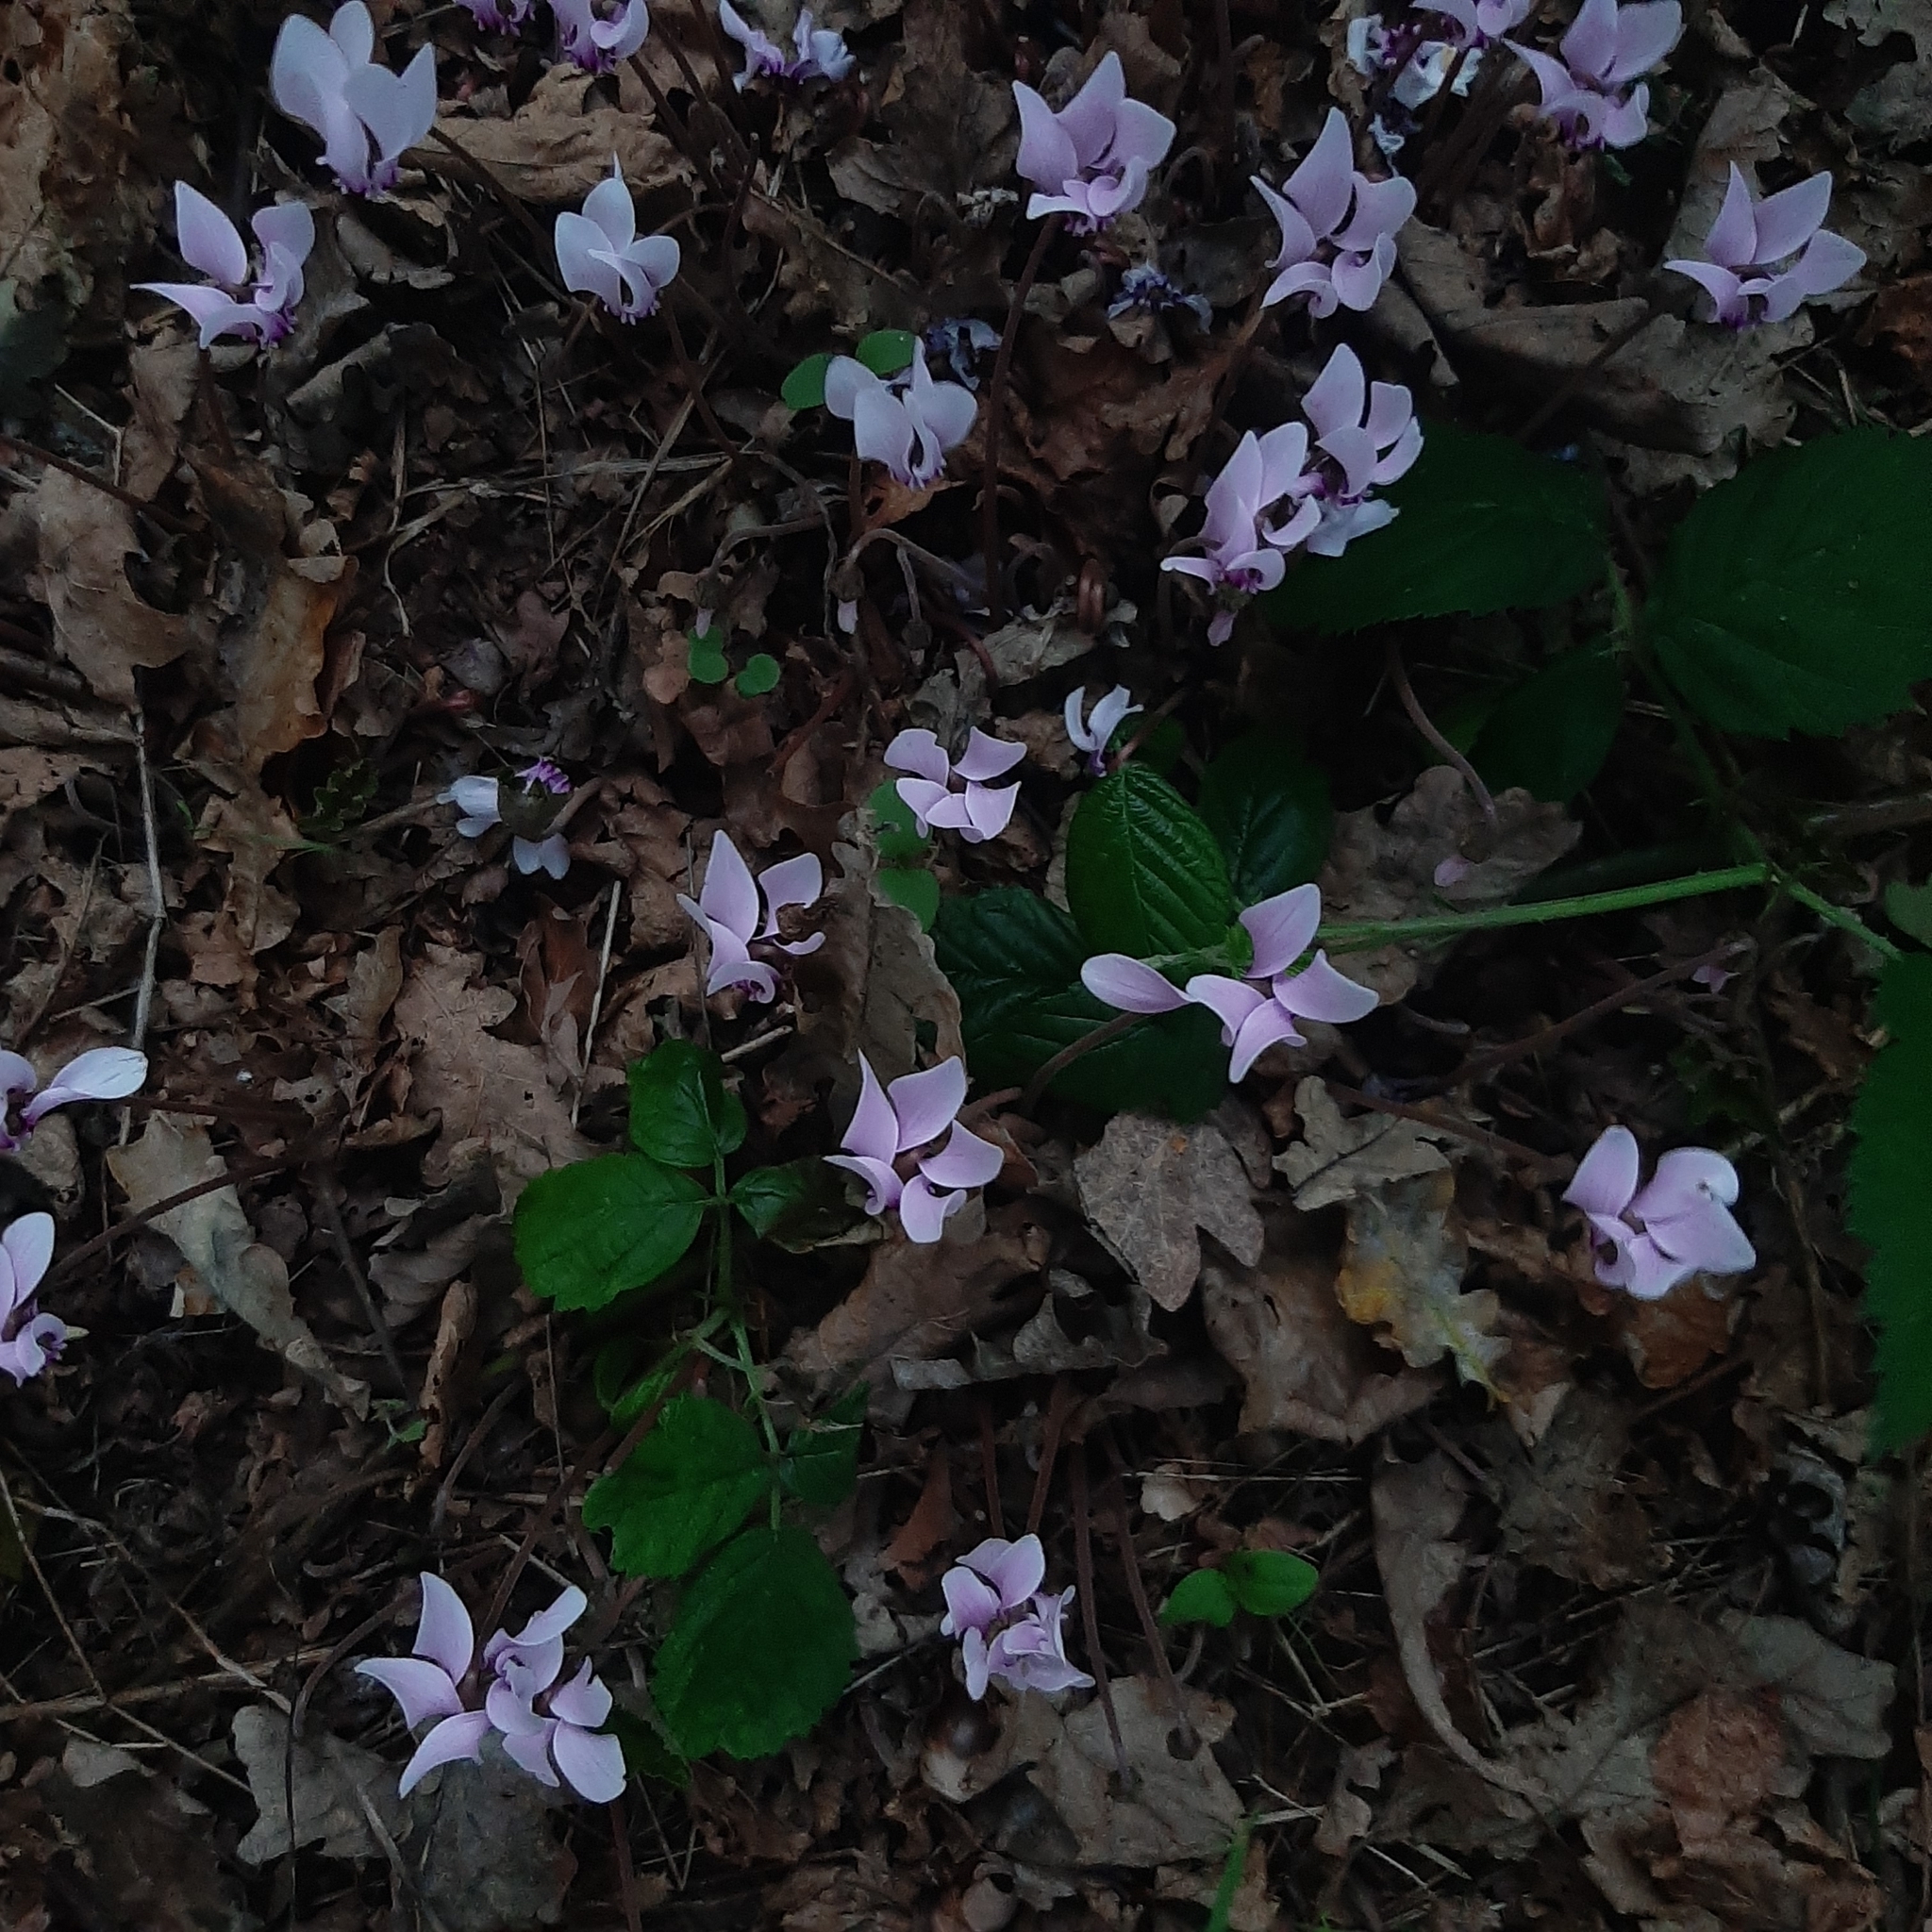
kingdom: Plantae
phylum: Tracheophyta
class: Magnoliopsida
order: Ericales
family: Primulaceae
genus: Cyclamen
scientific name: Cyclamen hederifolium
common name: Sowbread
